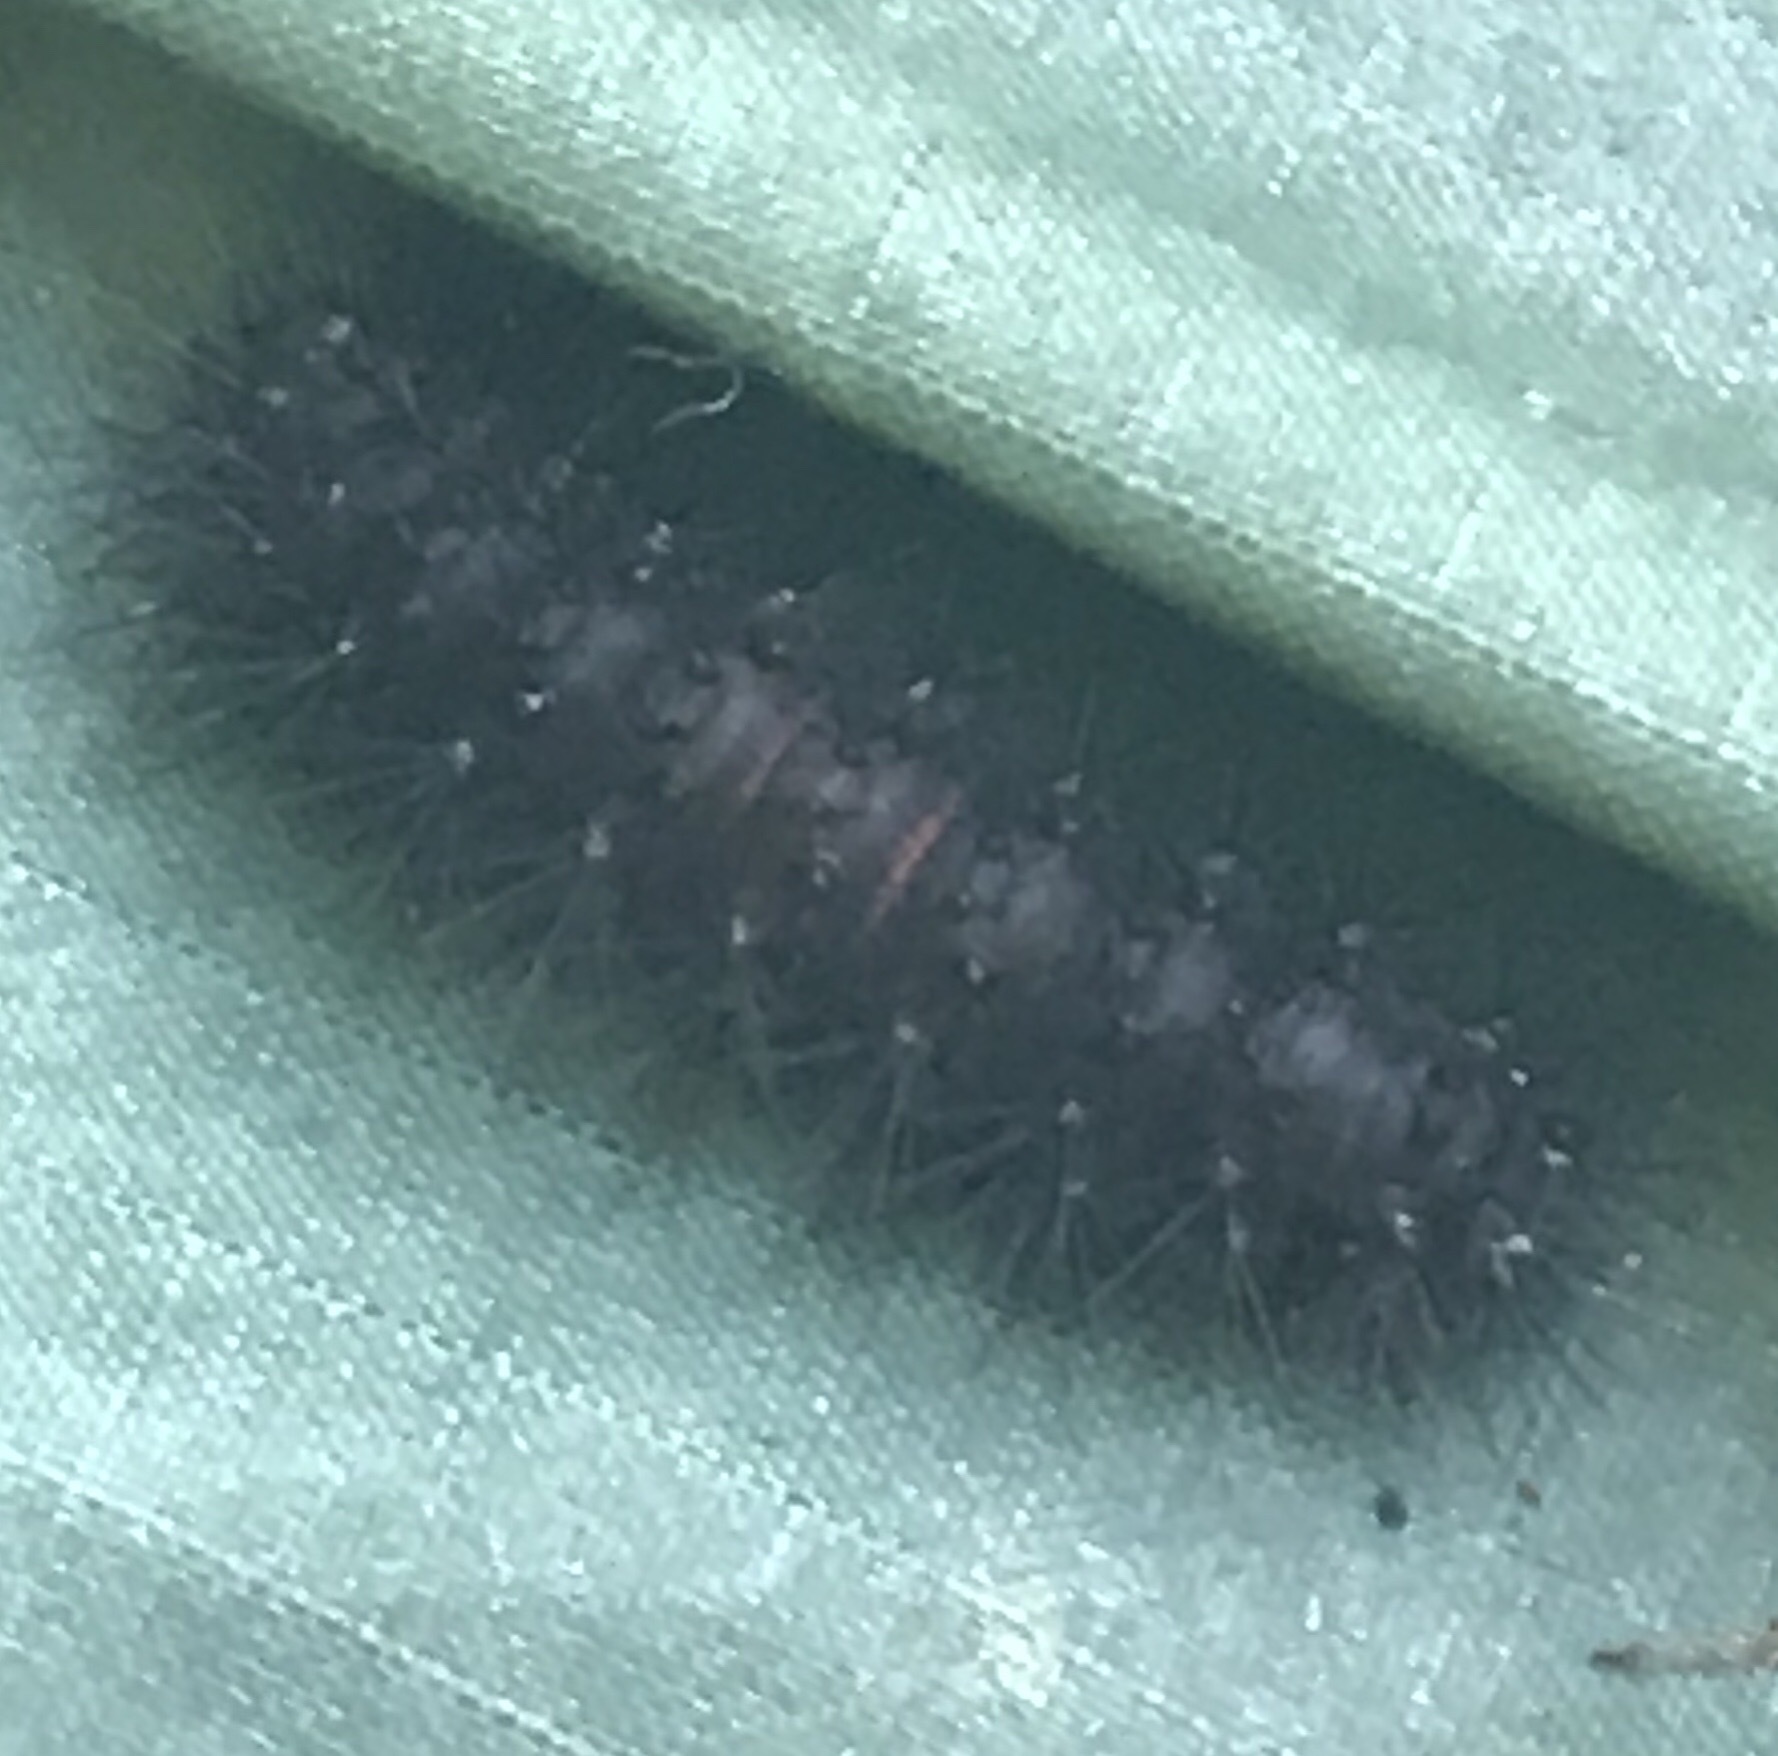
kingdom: Animalia
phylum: Arthropoda
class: Insecta
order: Lepidoptera
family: Erebidae
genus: Hypercompe
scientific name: Hypercompe scribonia
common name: Giant leopard moth
